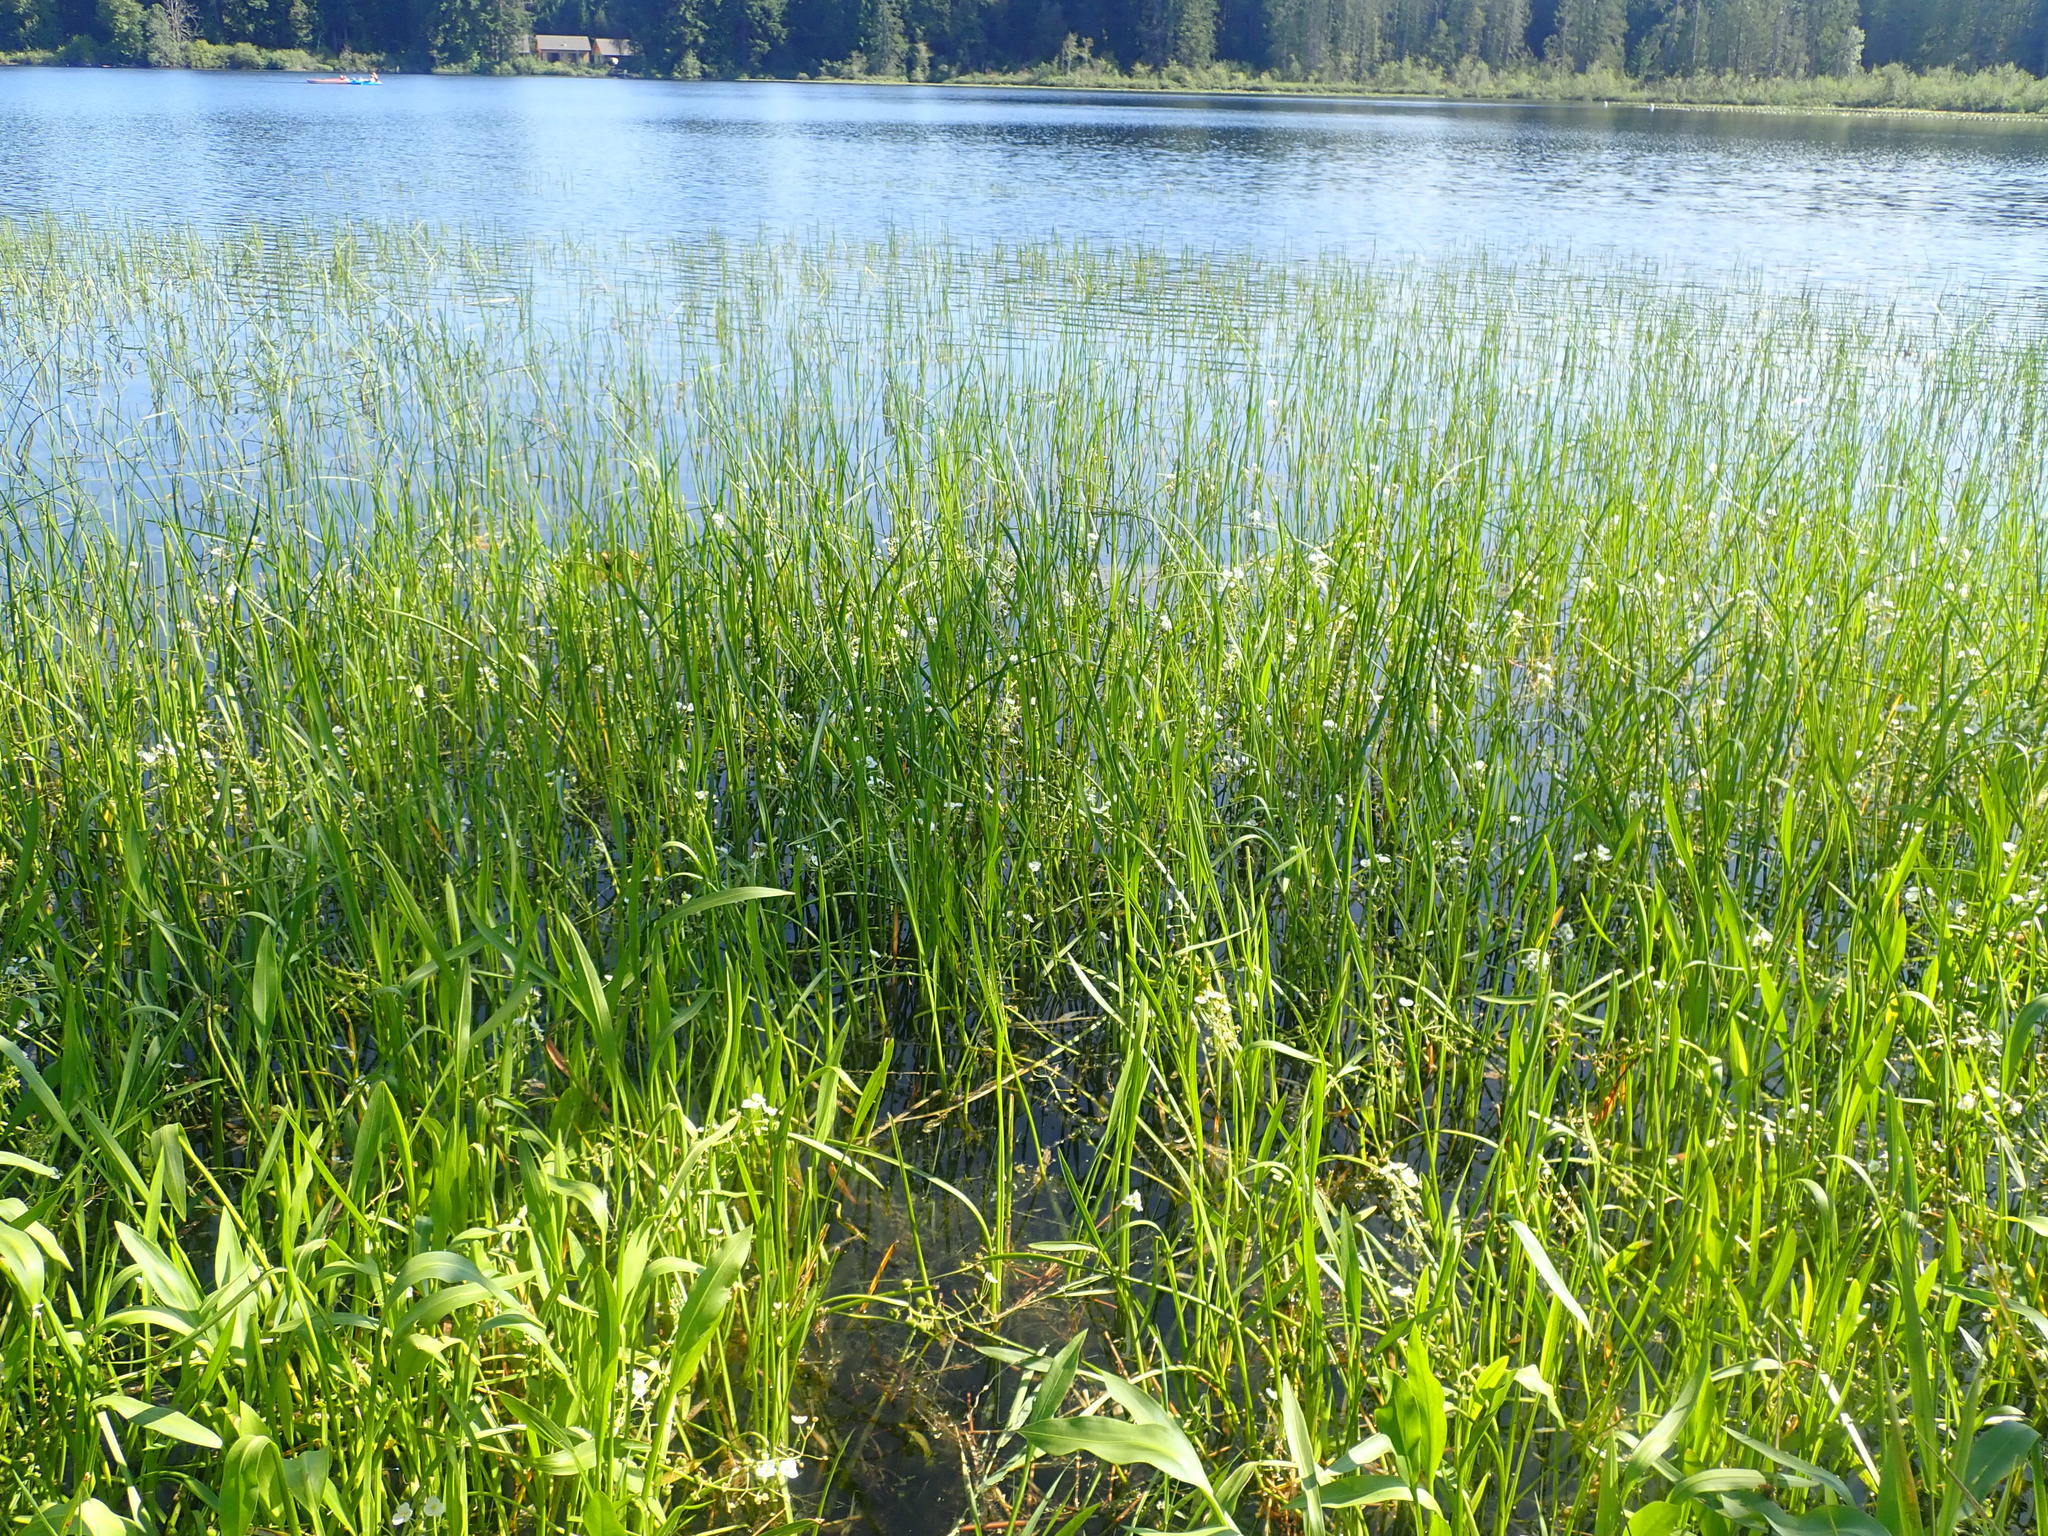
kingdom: Plantae
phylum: Tracheophyta
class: Liliopsida
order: Alismatales
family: Alismataceae
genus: Sagittaria
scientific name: Sagittaria platyphylla
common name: Broad-leaf arrowhead
